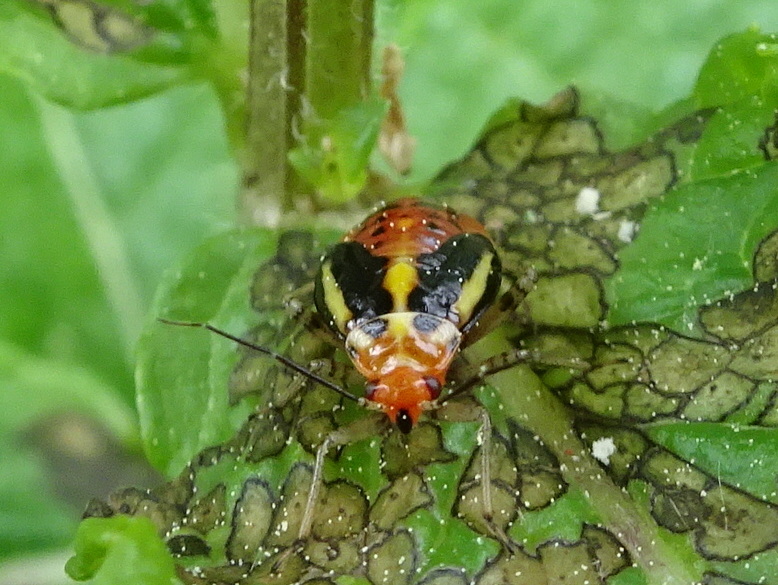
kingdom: Animalia
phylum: Arthropoda
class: Insecta
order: Hemiptera
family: Miridae
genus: Poecilocapsus
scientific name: Poecilocapsus lineatus
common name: Four-lined plant bug
